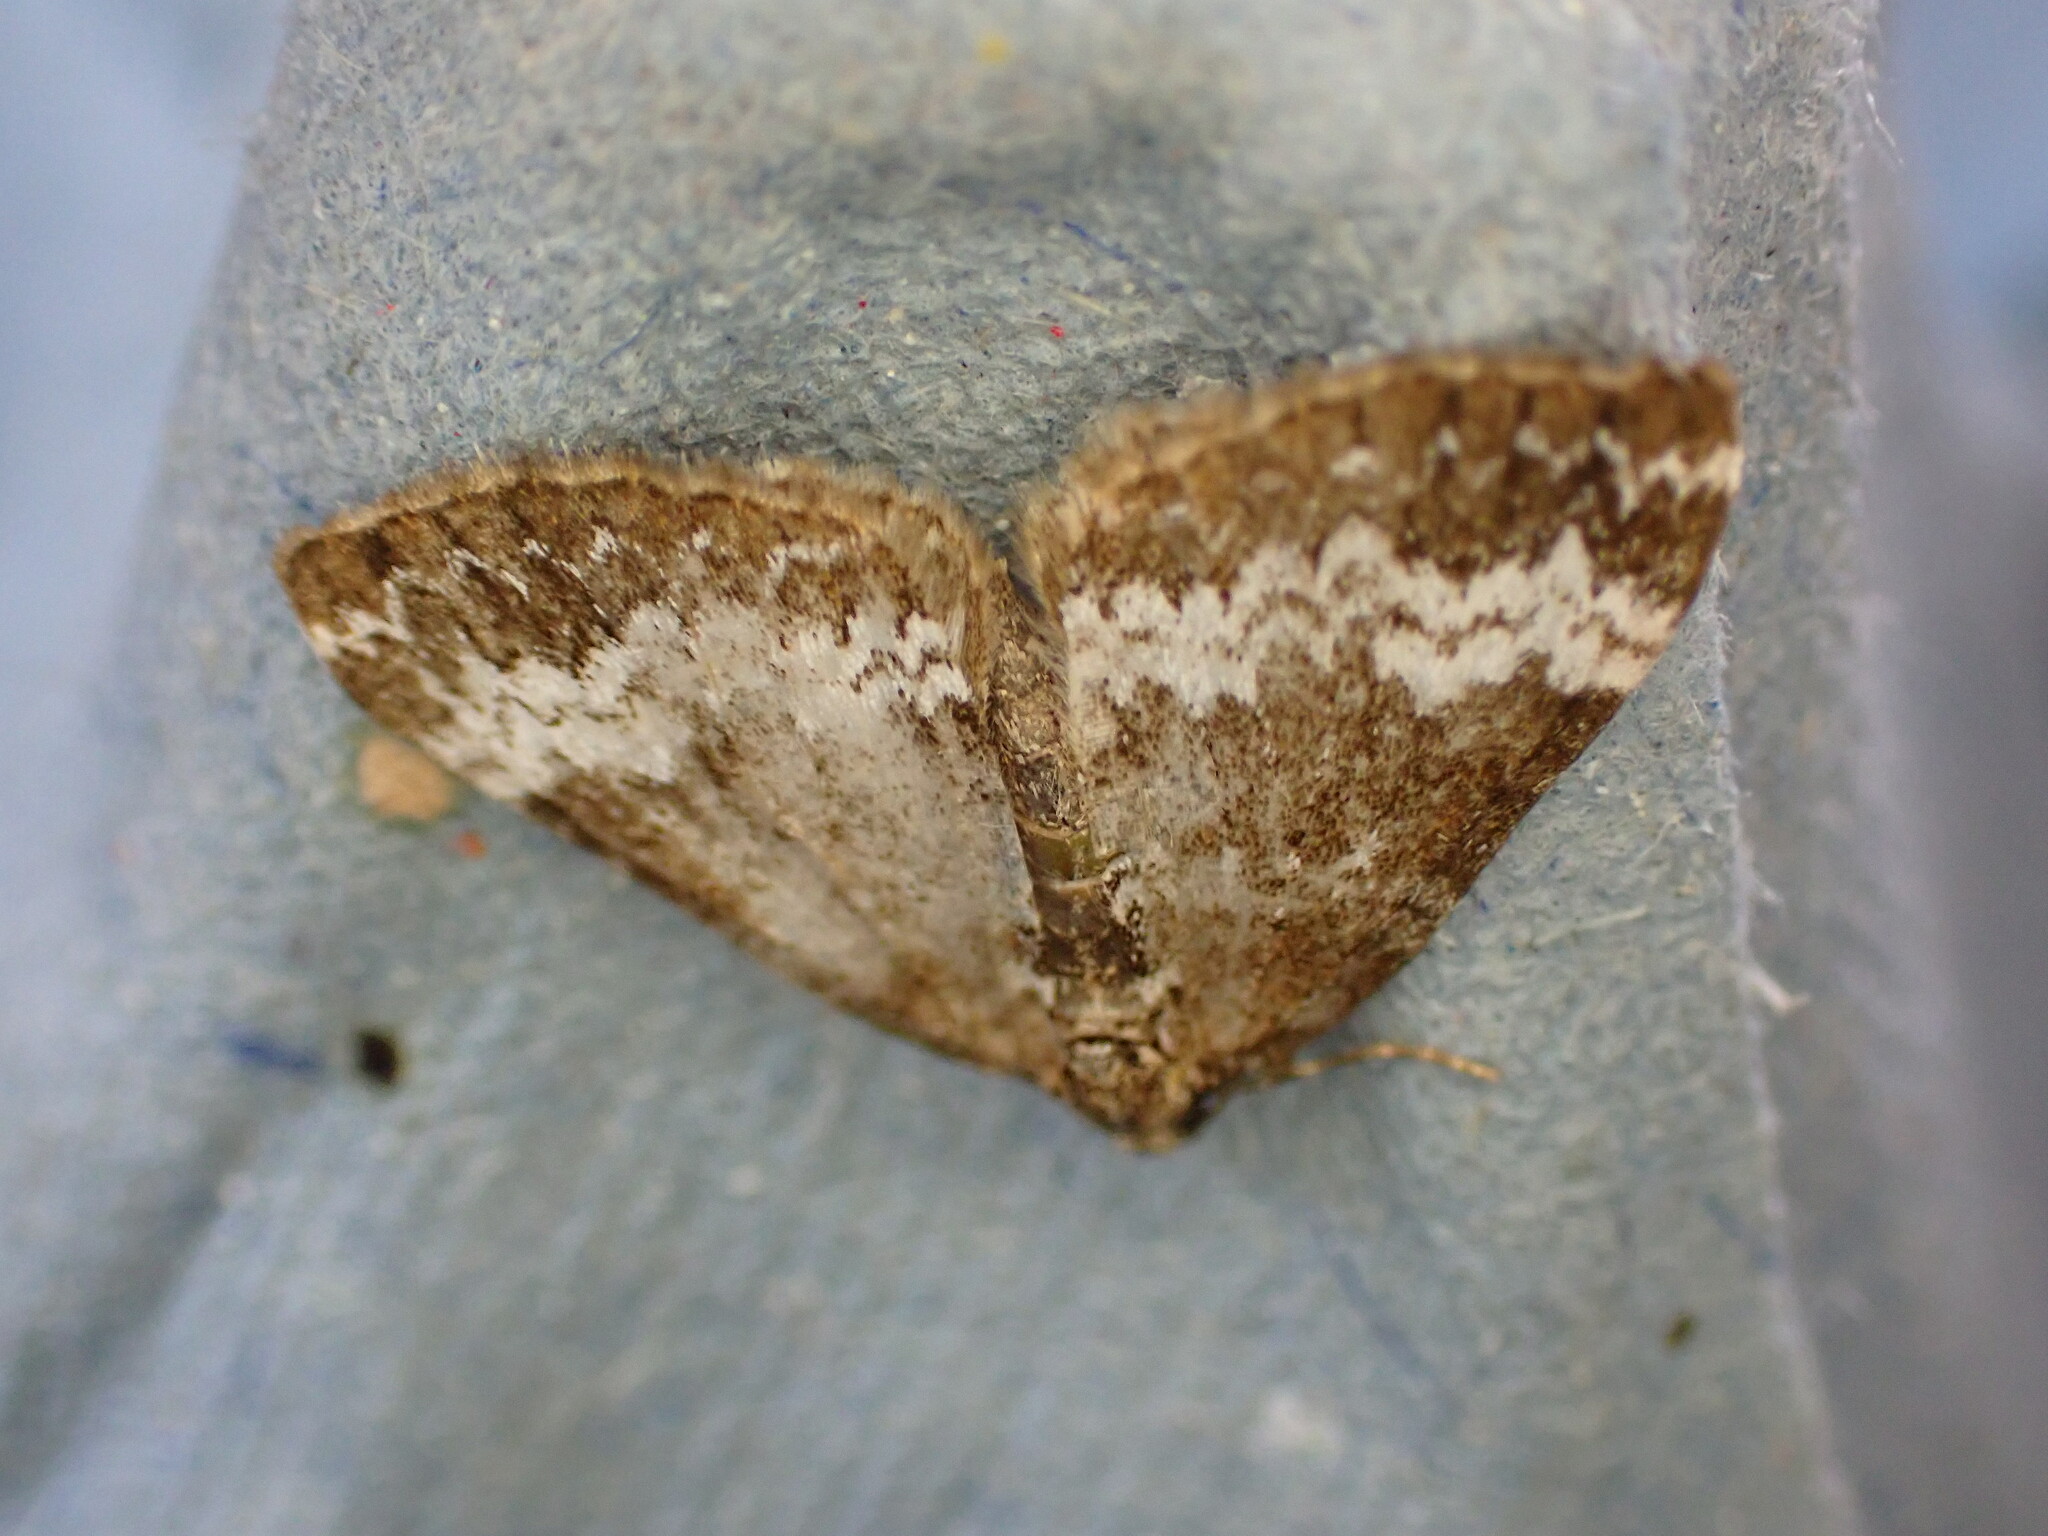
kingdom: Animalia
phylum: Arthropoda
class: Insecta
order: Lepidoptera
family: Geometridae
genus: Perizoma
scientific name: Perizoma alchemillata
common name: Small rivulet
